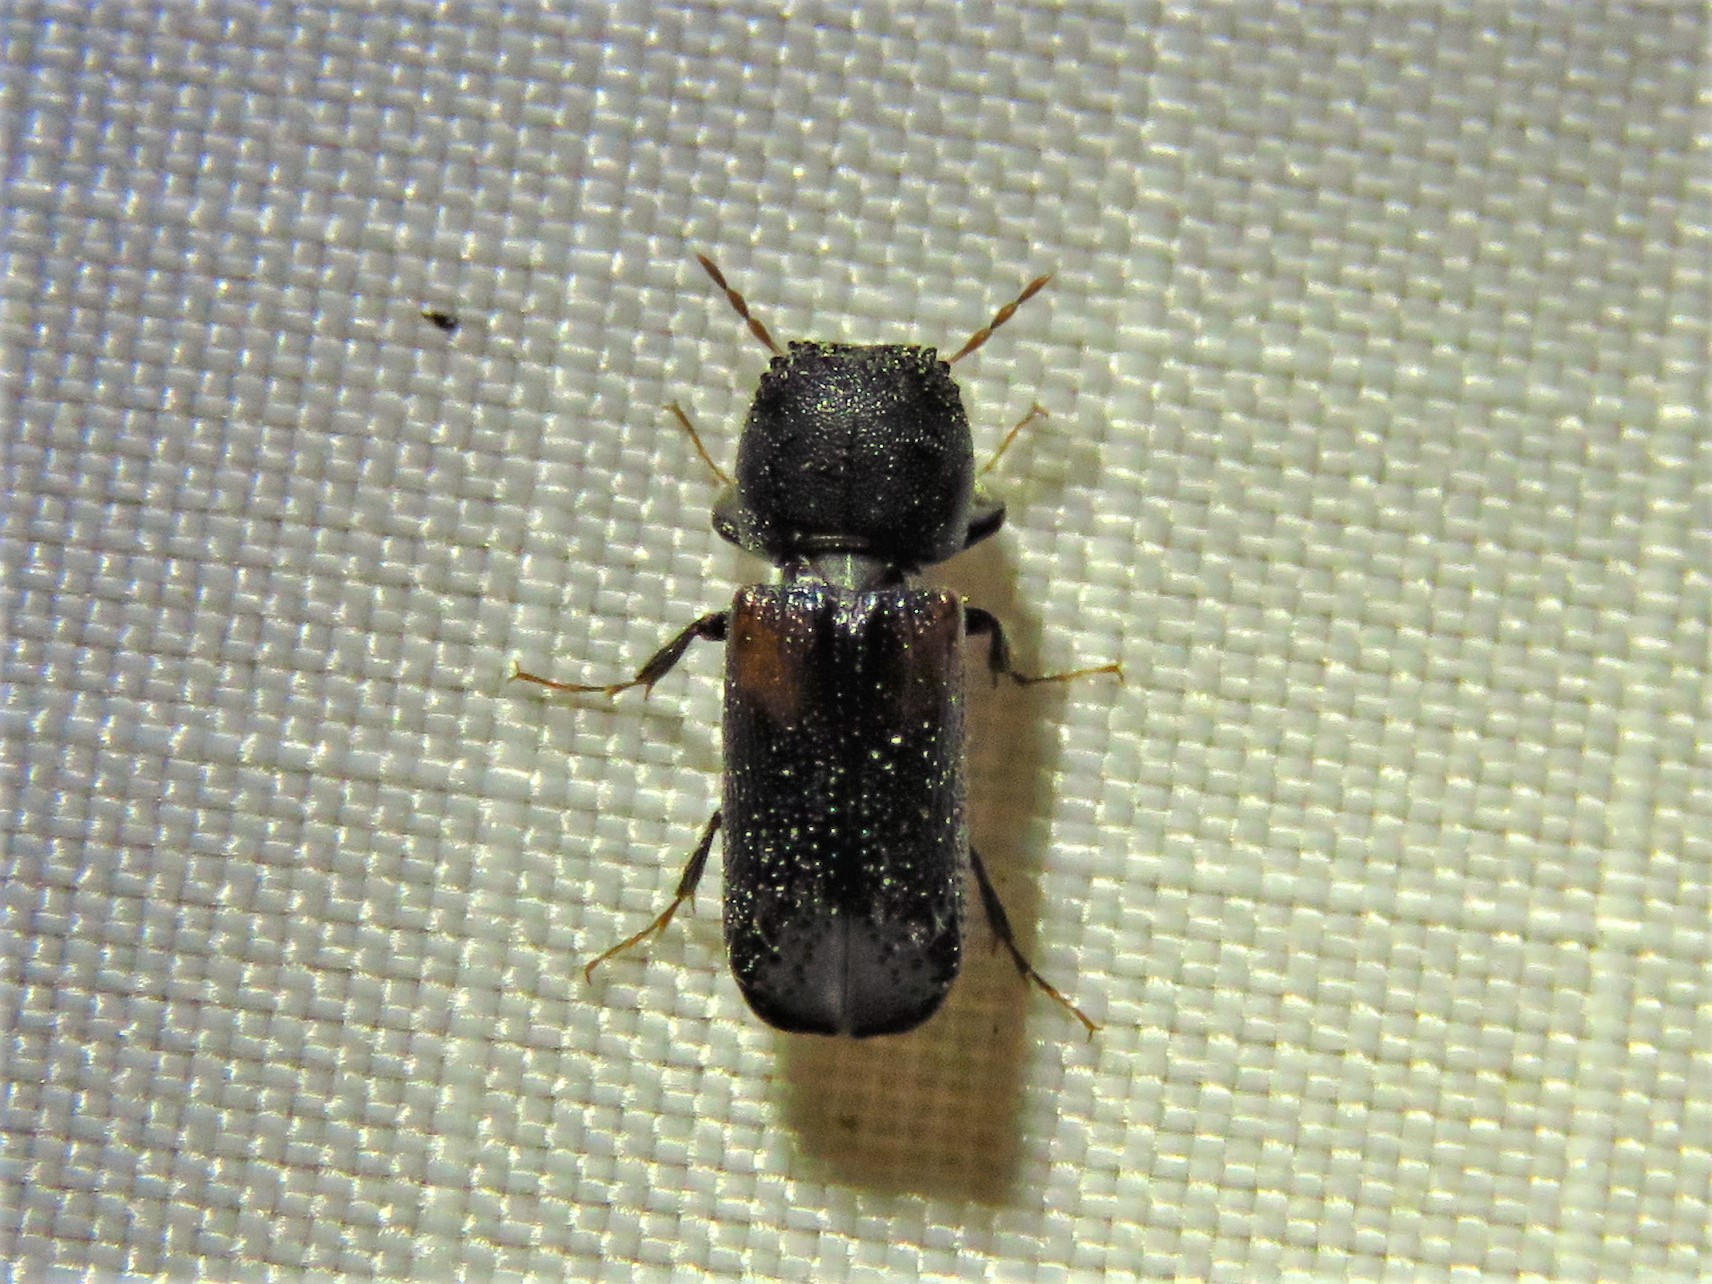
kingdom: Animalia
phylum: Arthropoda
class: Insecta
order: Coleoptera
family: Bostrichidae
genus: Xylobiops
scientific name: Xylobiops basilaris
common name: Red-shouldered bostrichid
